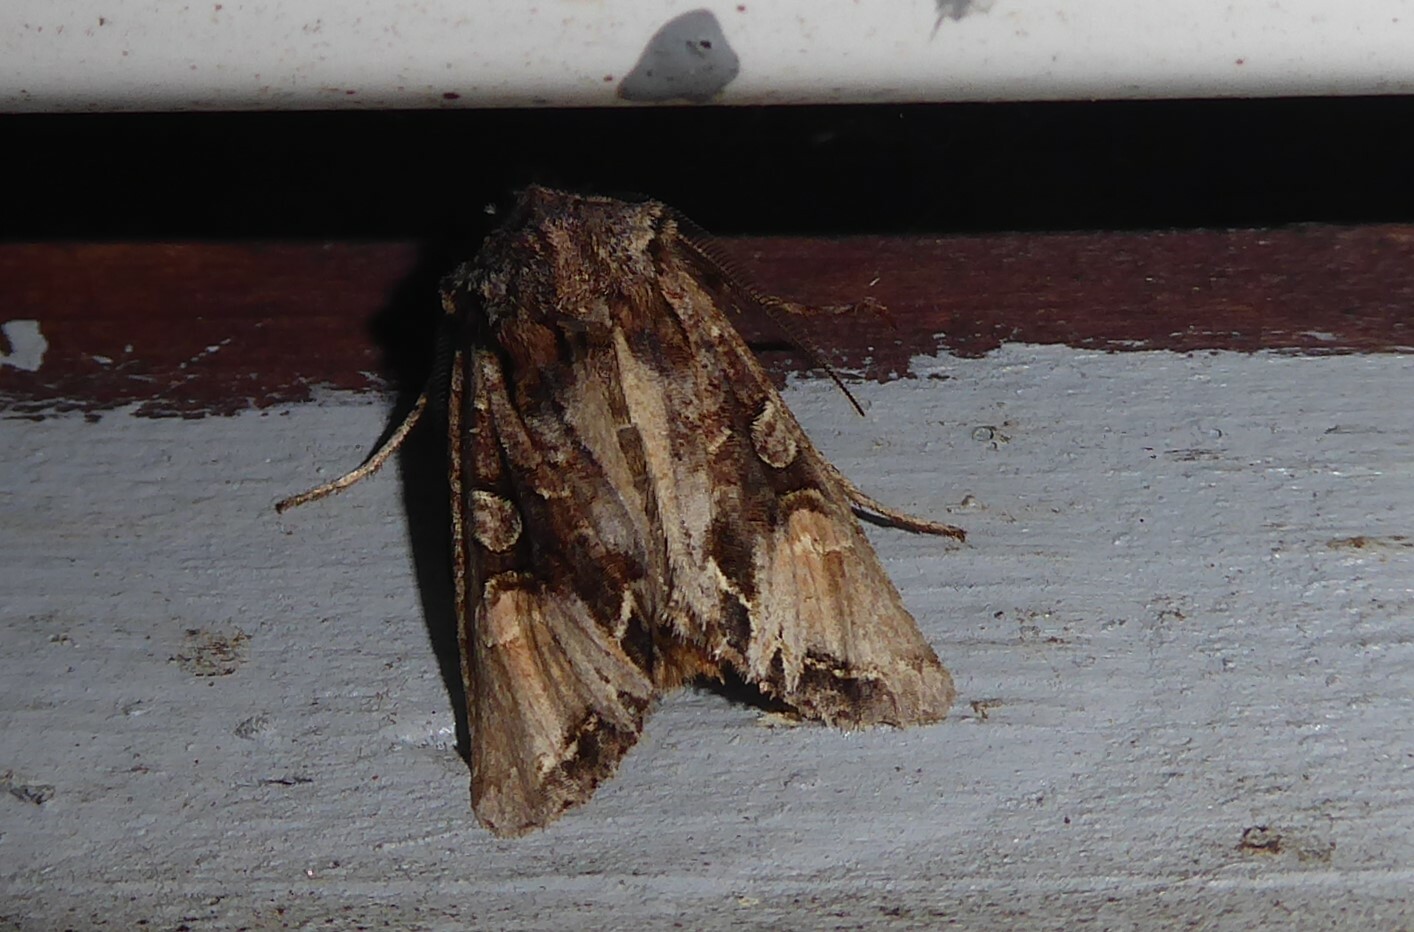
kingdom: Animalia
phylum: Arthropoda
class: Insecta
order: Lepidoptera
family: Noctuidae
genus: Ichneutica
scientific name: Ichneutica
